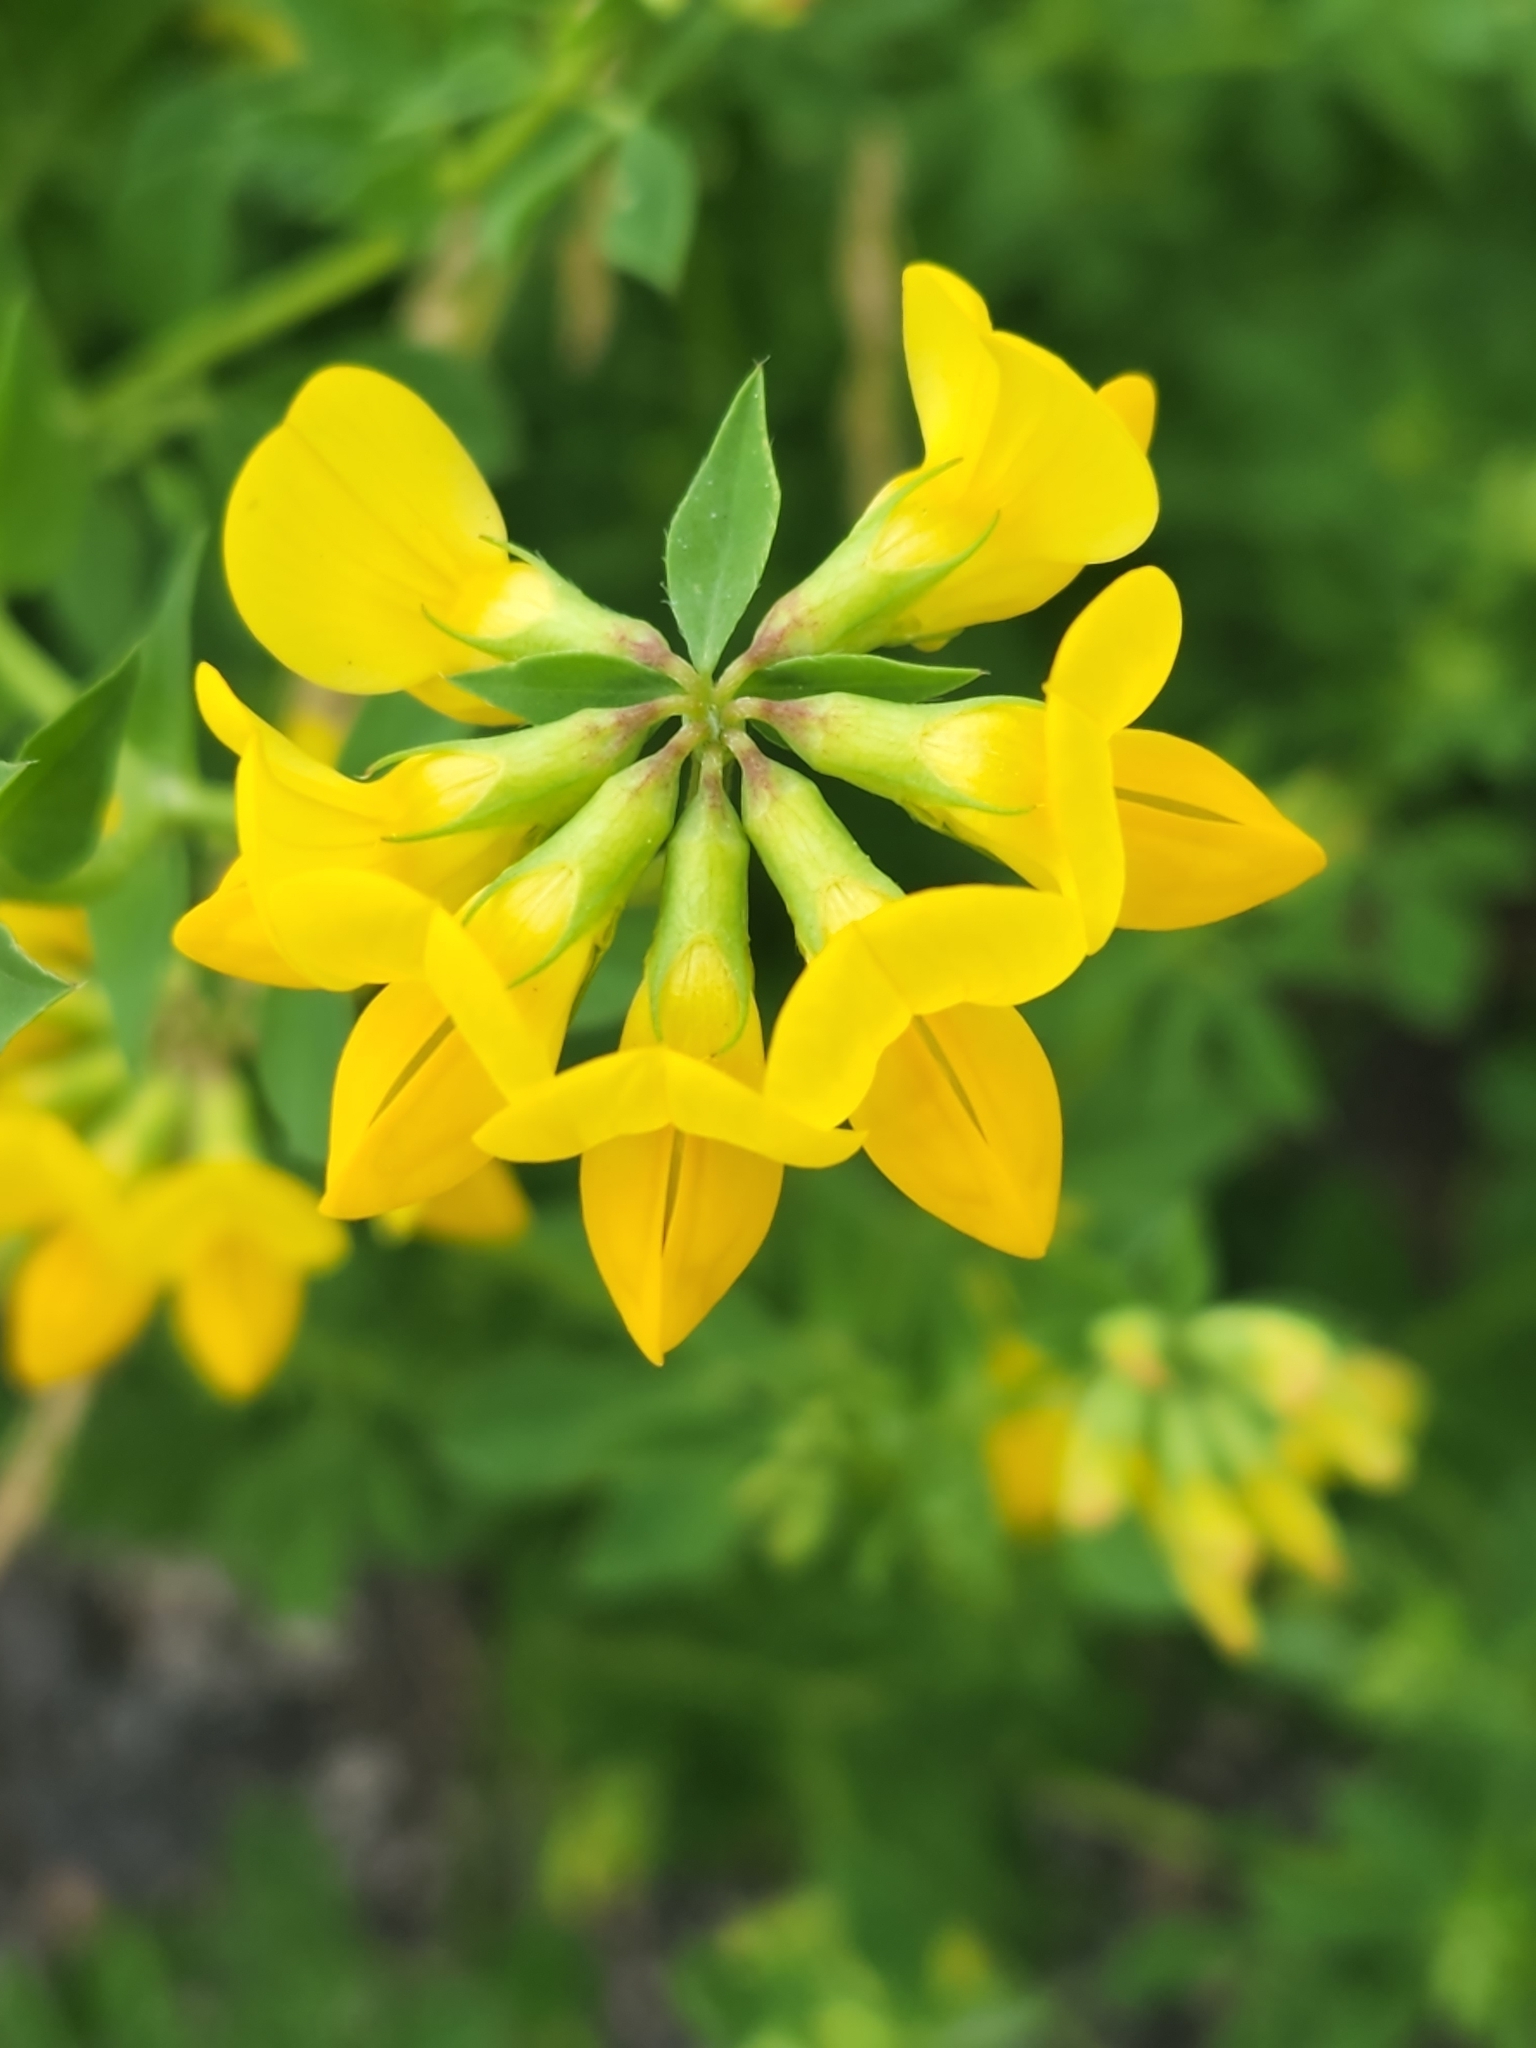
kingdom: Plantae
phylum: Tracheophyta
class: Magnoliopsida
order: Fabales
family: Fabaceae
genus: Lotus
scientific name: Lotus corniculatus
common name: Common bird's-foot-trefoil
